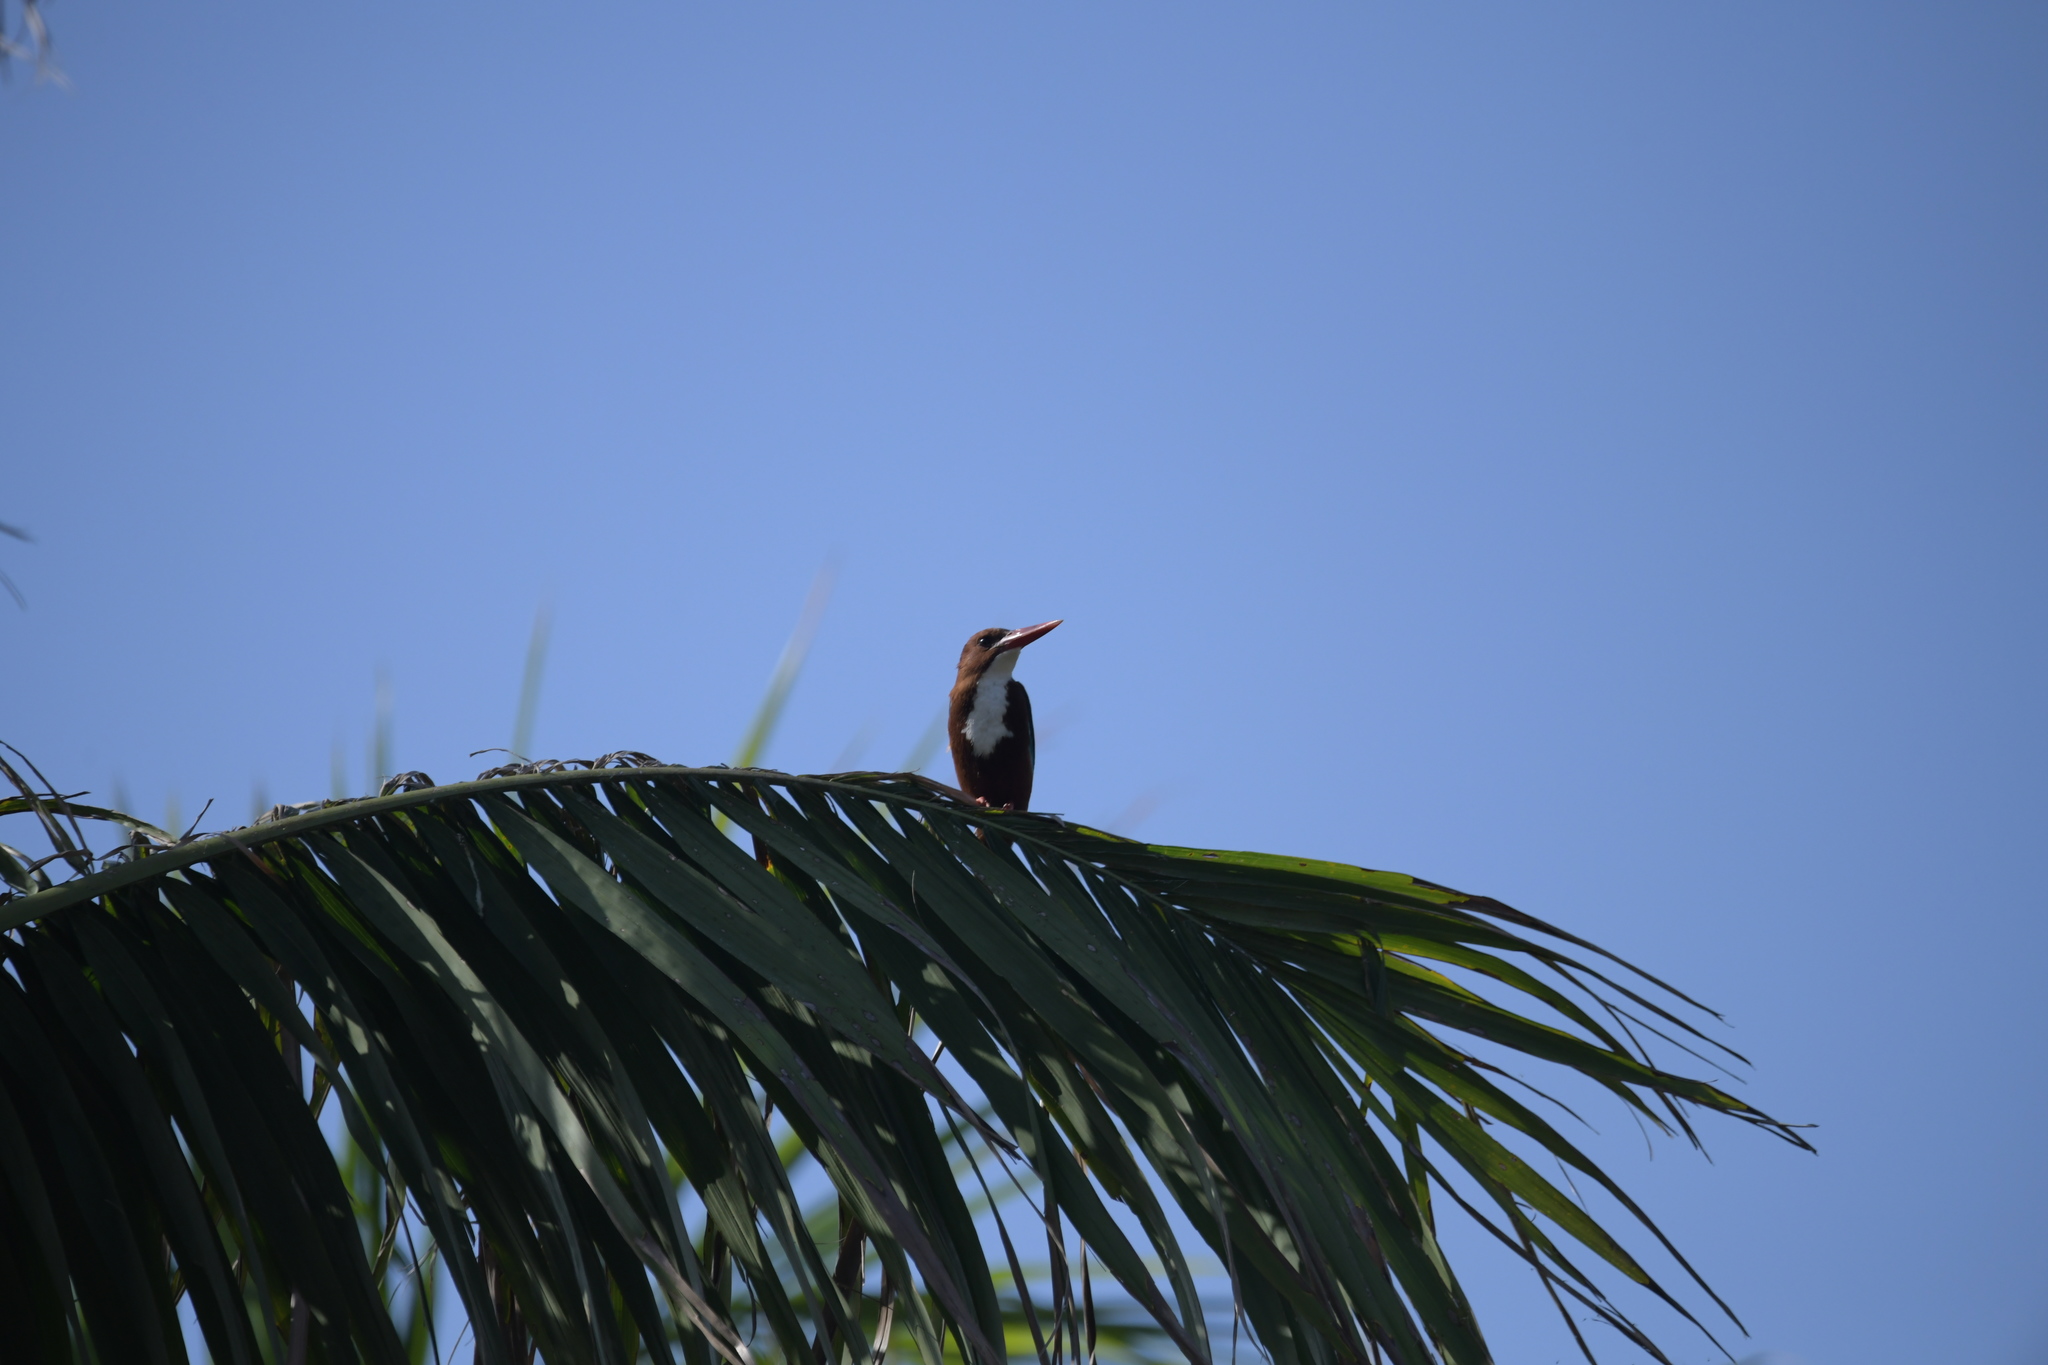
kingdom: Animalia
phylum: Chordata
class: Aves
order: Coraciiformes
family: Alcedinidae
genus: Halcyon
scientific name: Halcyon smyrnensis
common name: White-throated kingfisher
